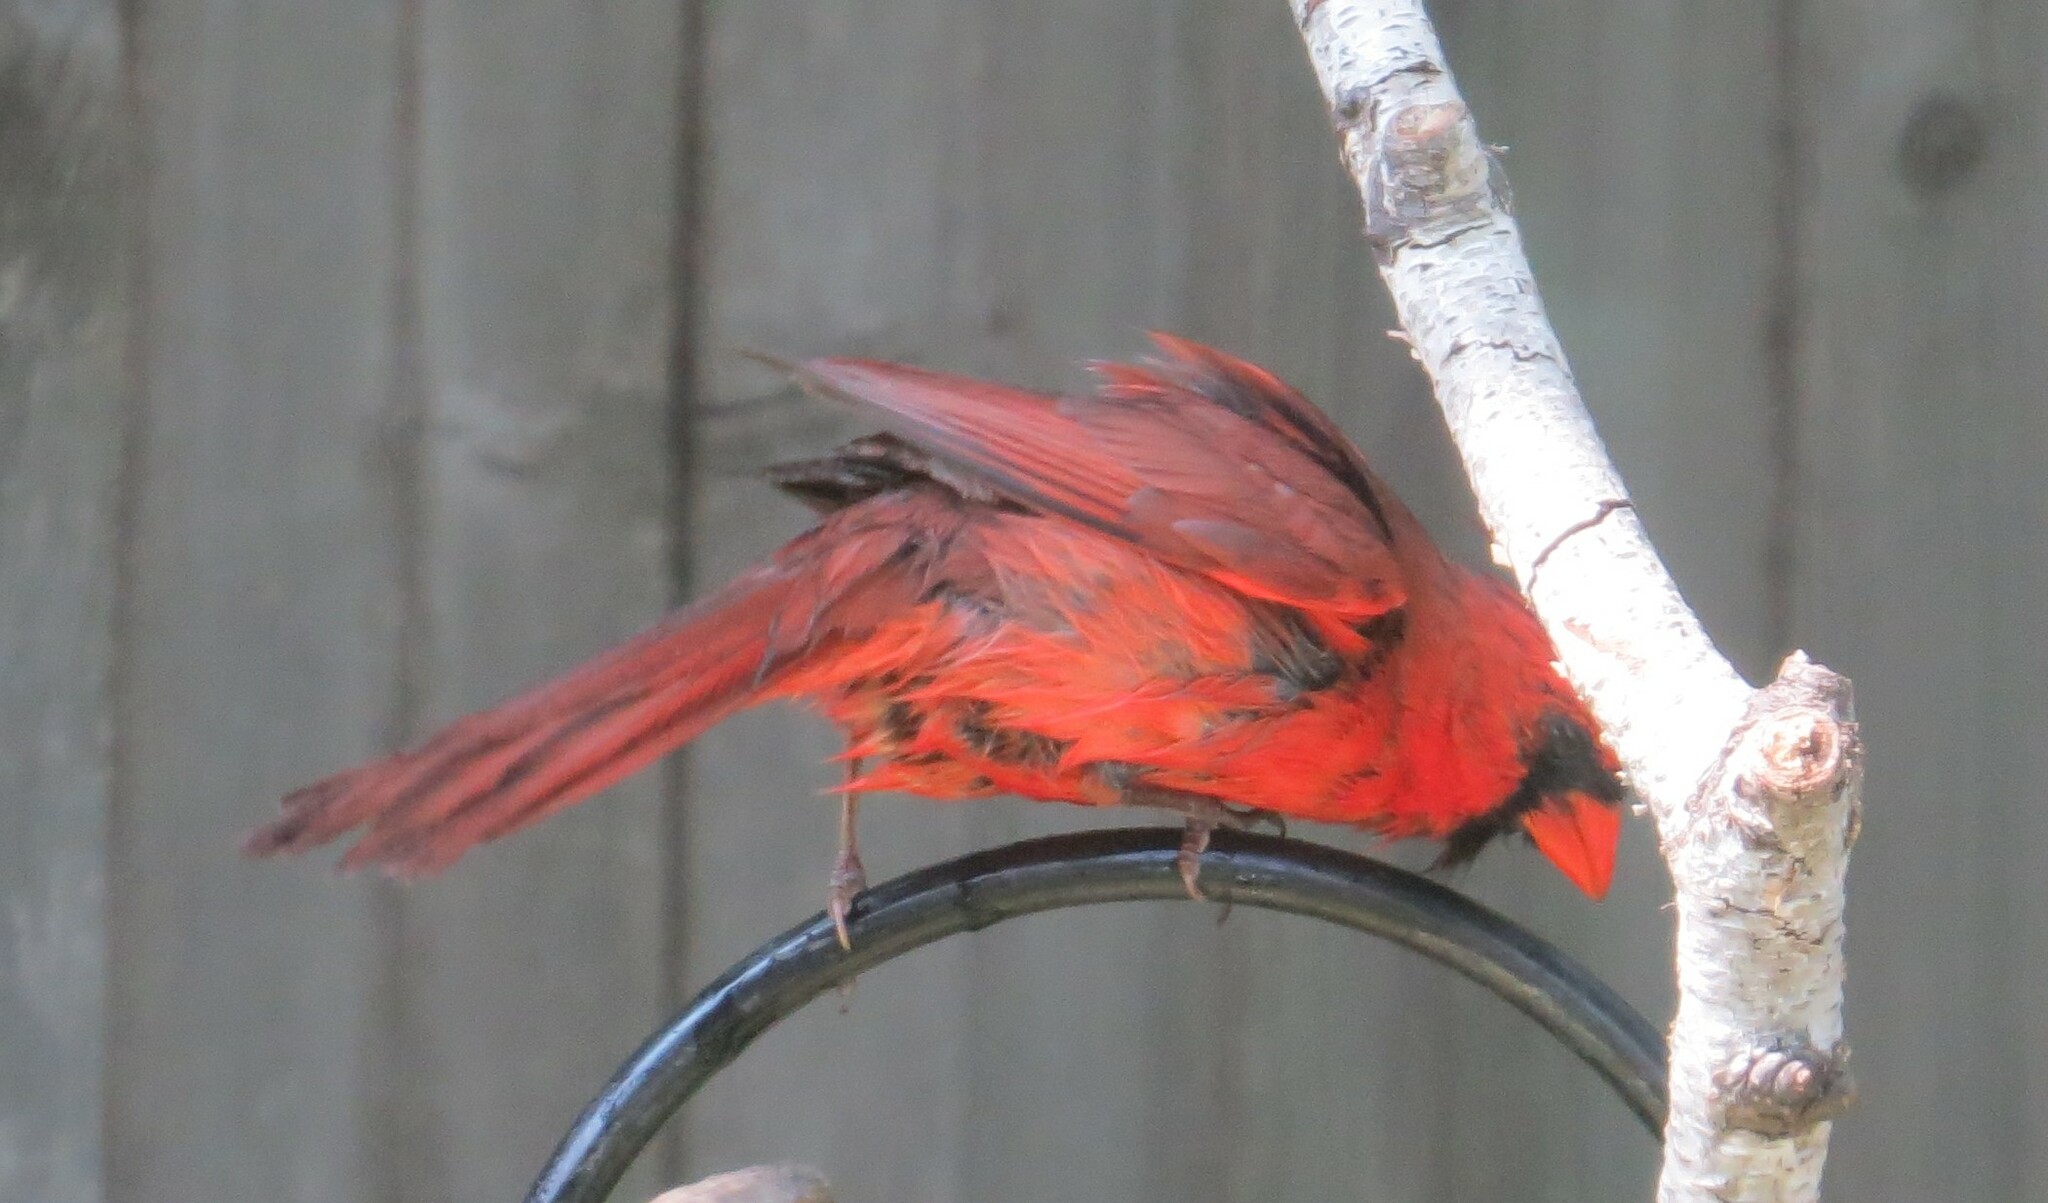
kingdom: Animalia
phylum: Chordata
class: Aves
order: Passeriformes
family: Cardinalidae
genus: Cardinalis
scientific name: Cardinalis cardinalis
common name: Northern cardinal
